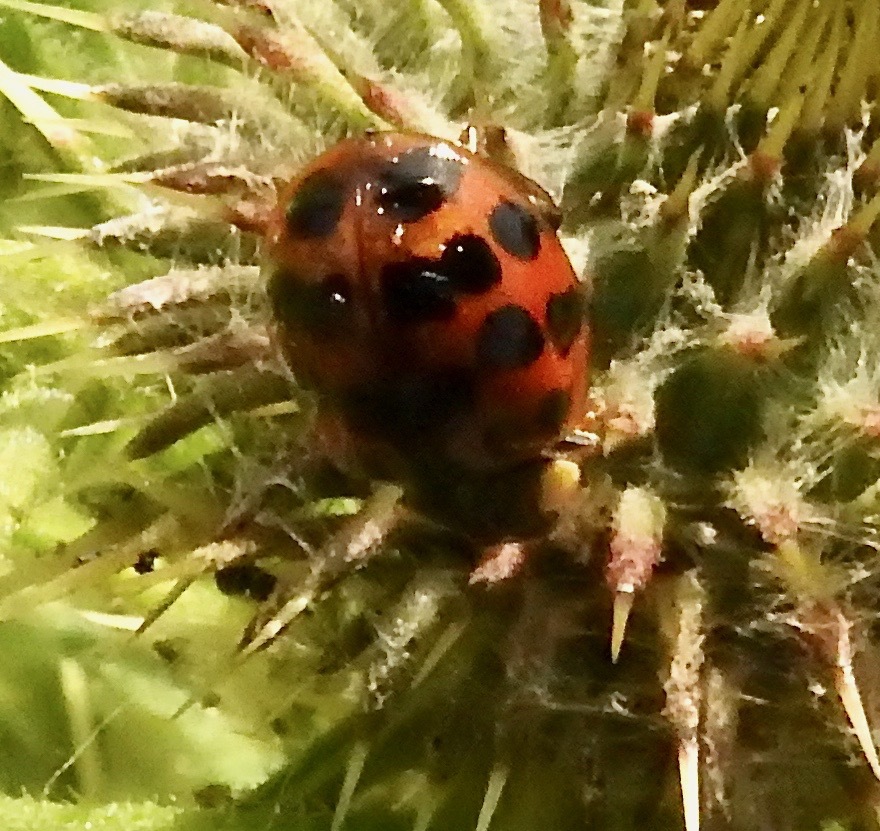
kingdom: Animalia
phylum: Arthropoda
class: Insecta
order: Coleoptera
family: Coccinellidae
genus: Harmonia
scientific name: Harmonia axyridis
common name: Harlequin ladybird
